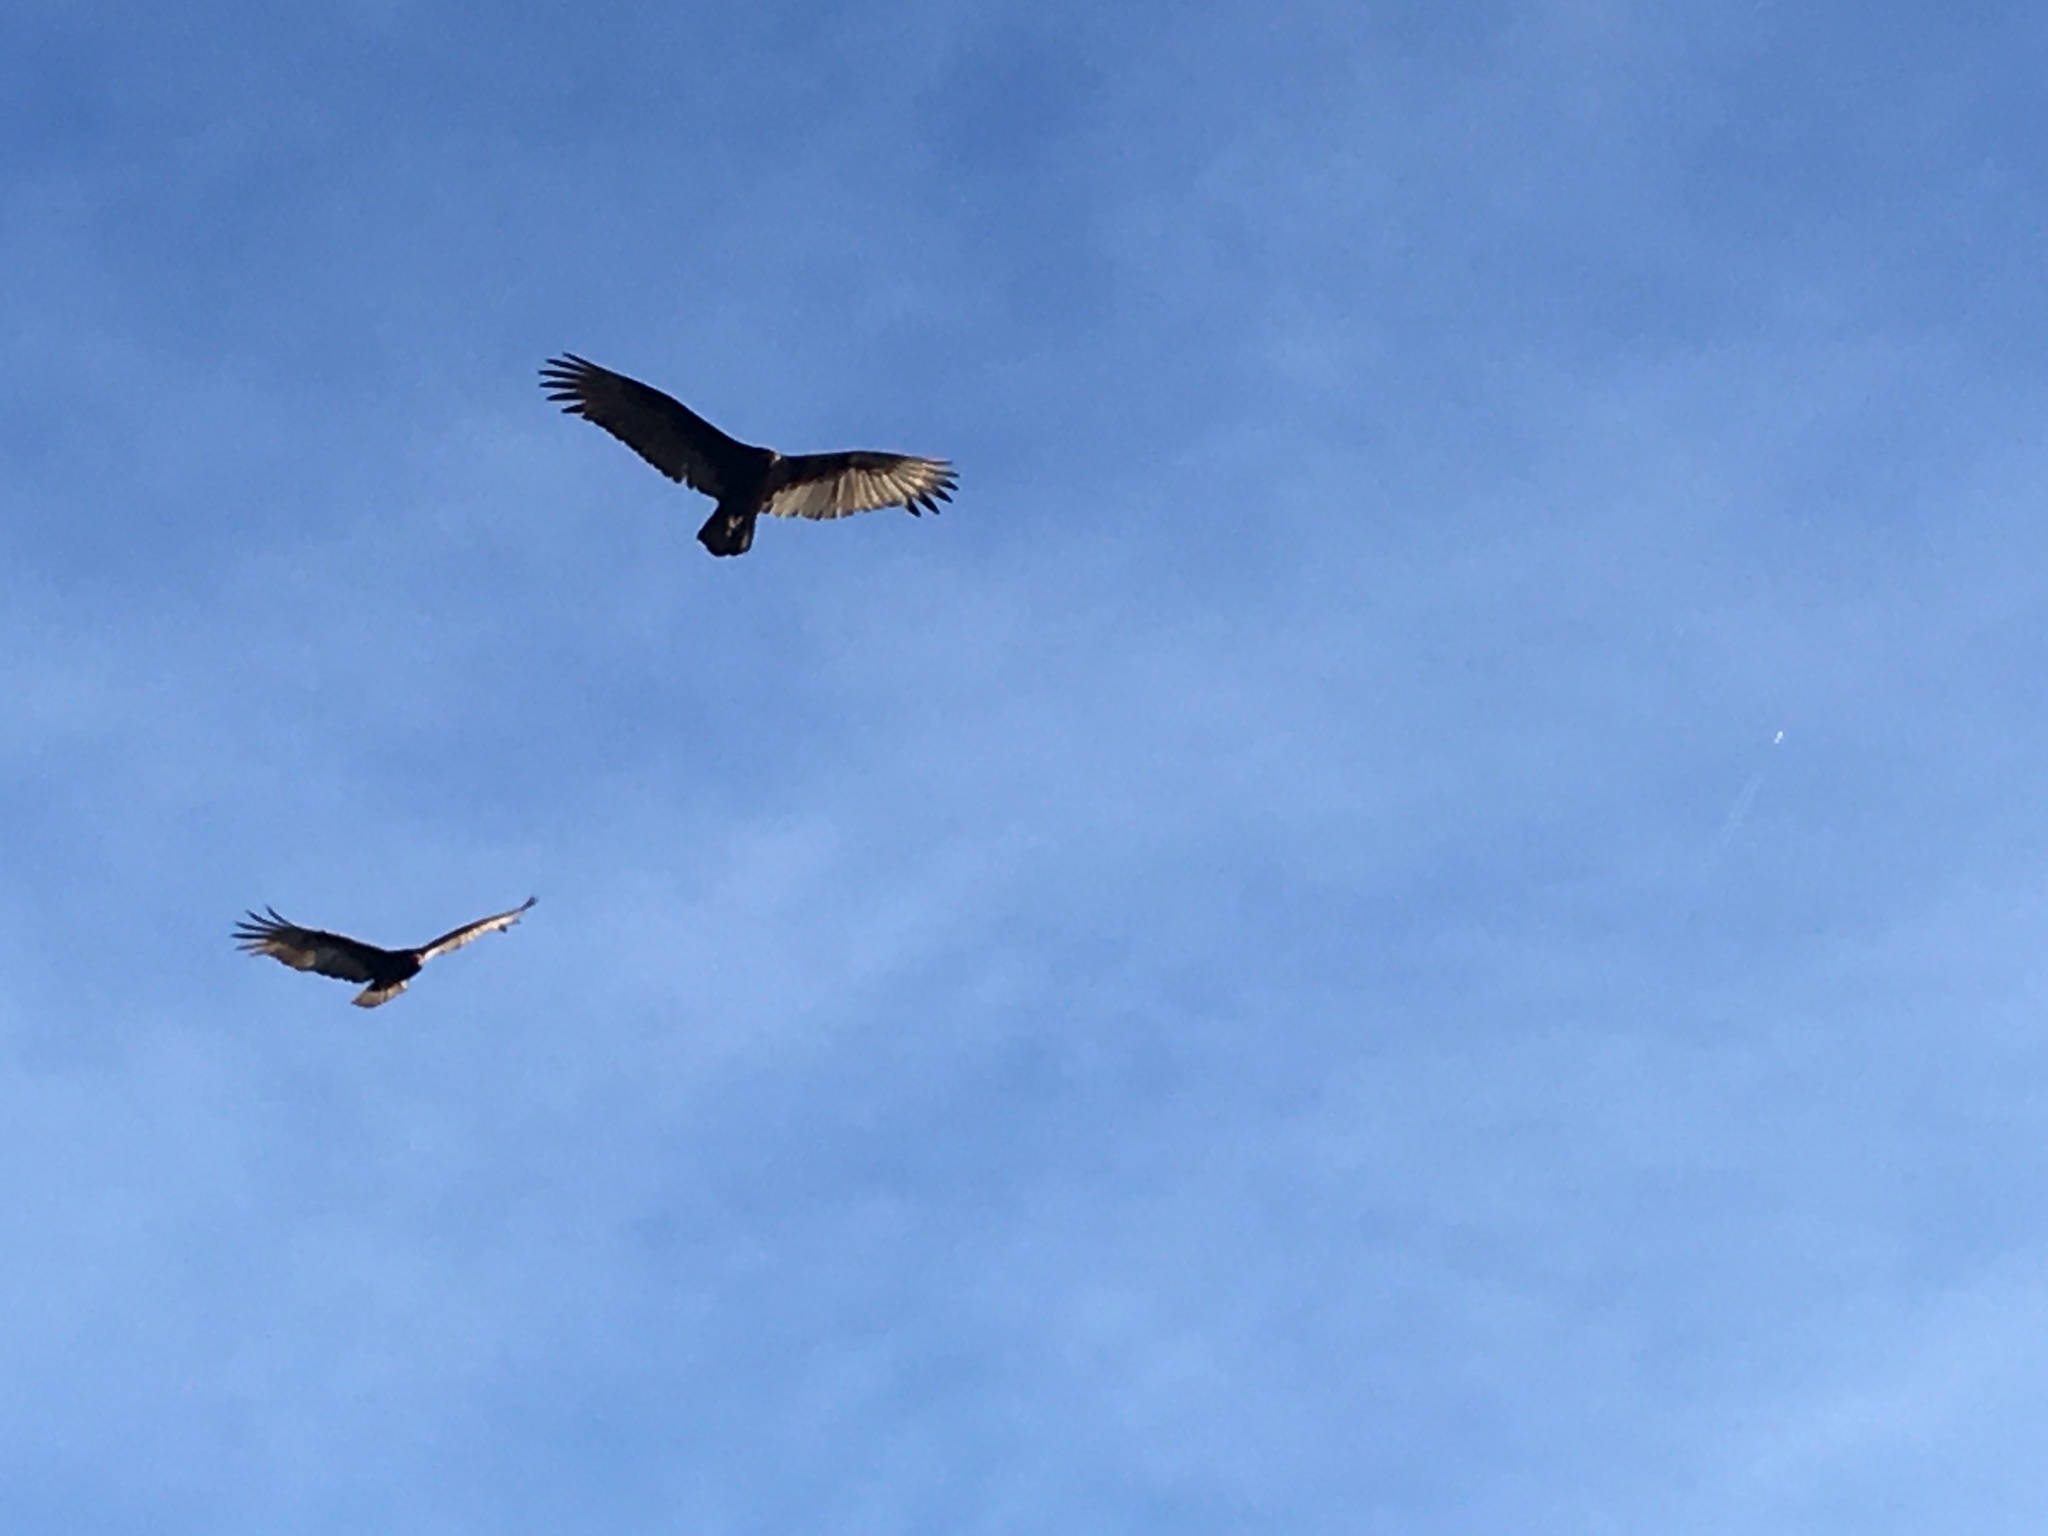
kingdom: Animalia
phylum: Chordata
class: Aves
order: Accipitriformes
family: Cathartidae
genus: Cathartes
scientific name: Cathartes aura
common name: Turkey vulture
